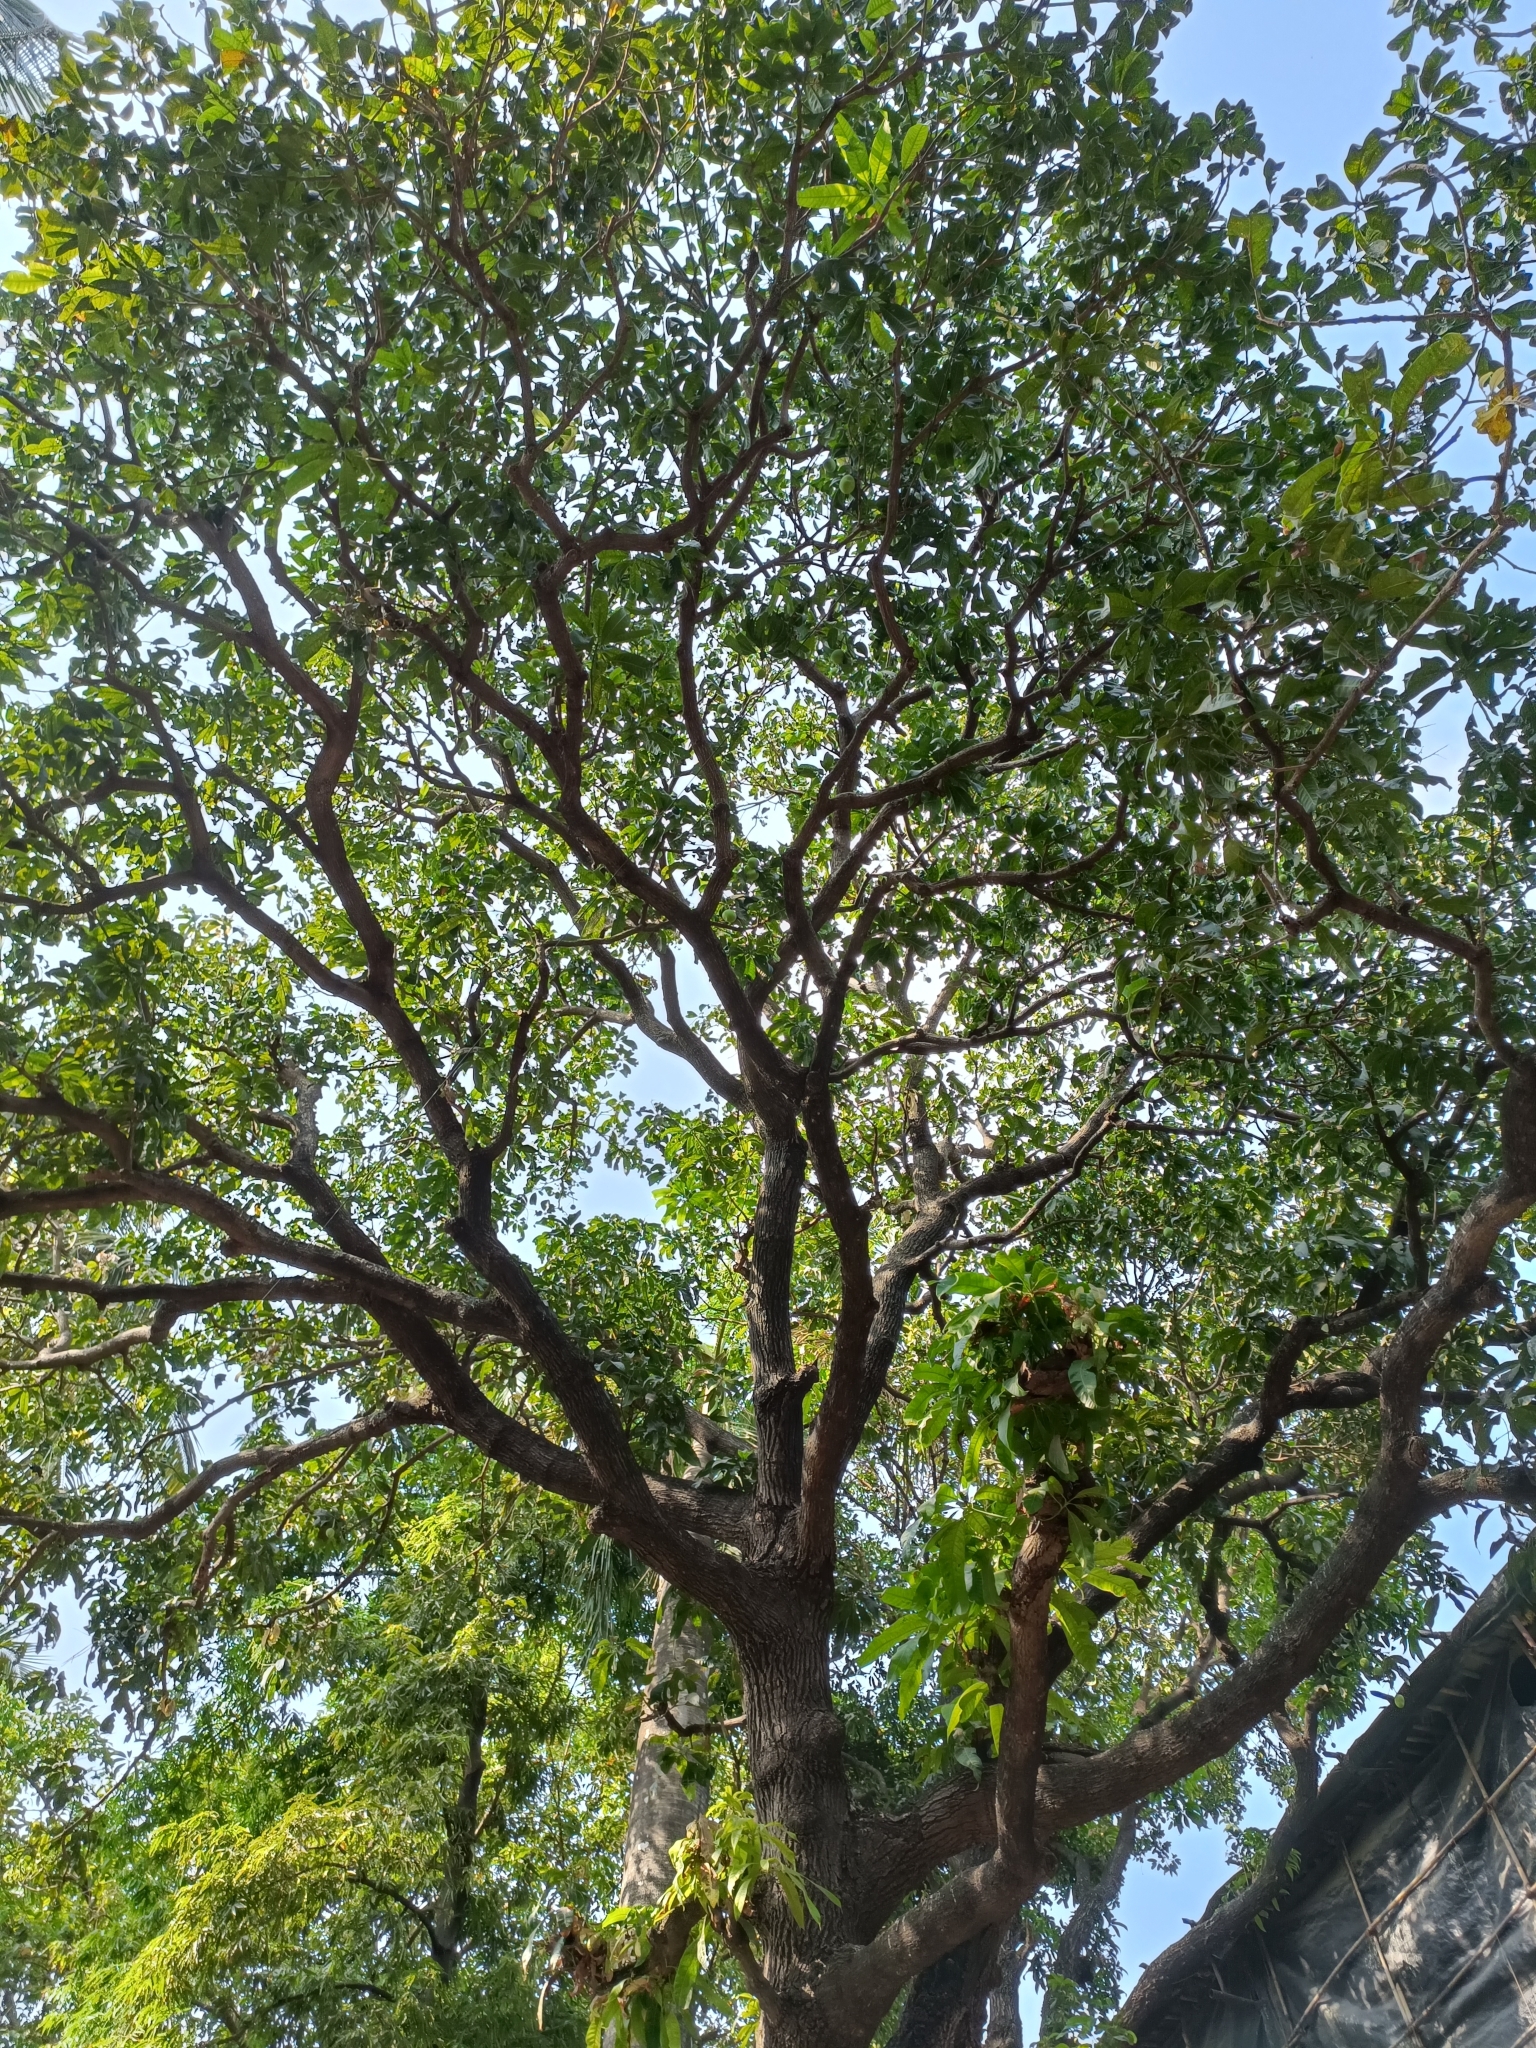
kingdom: Plantae
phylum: Tracheophyta
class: Magnoliopsida
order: Sapindales
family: Anacardiaceae
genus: Mangifera
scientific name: Mangifera indica
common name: Mango
